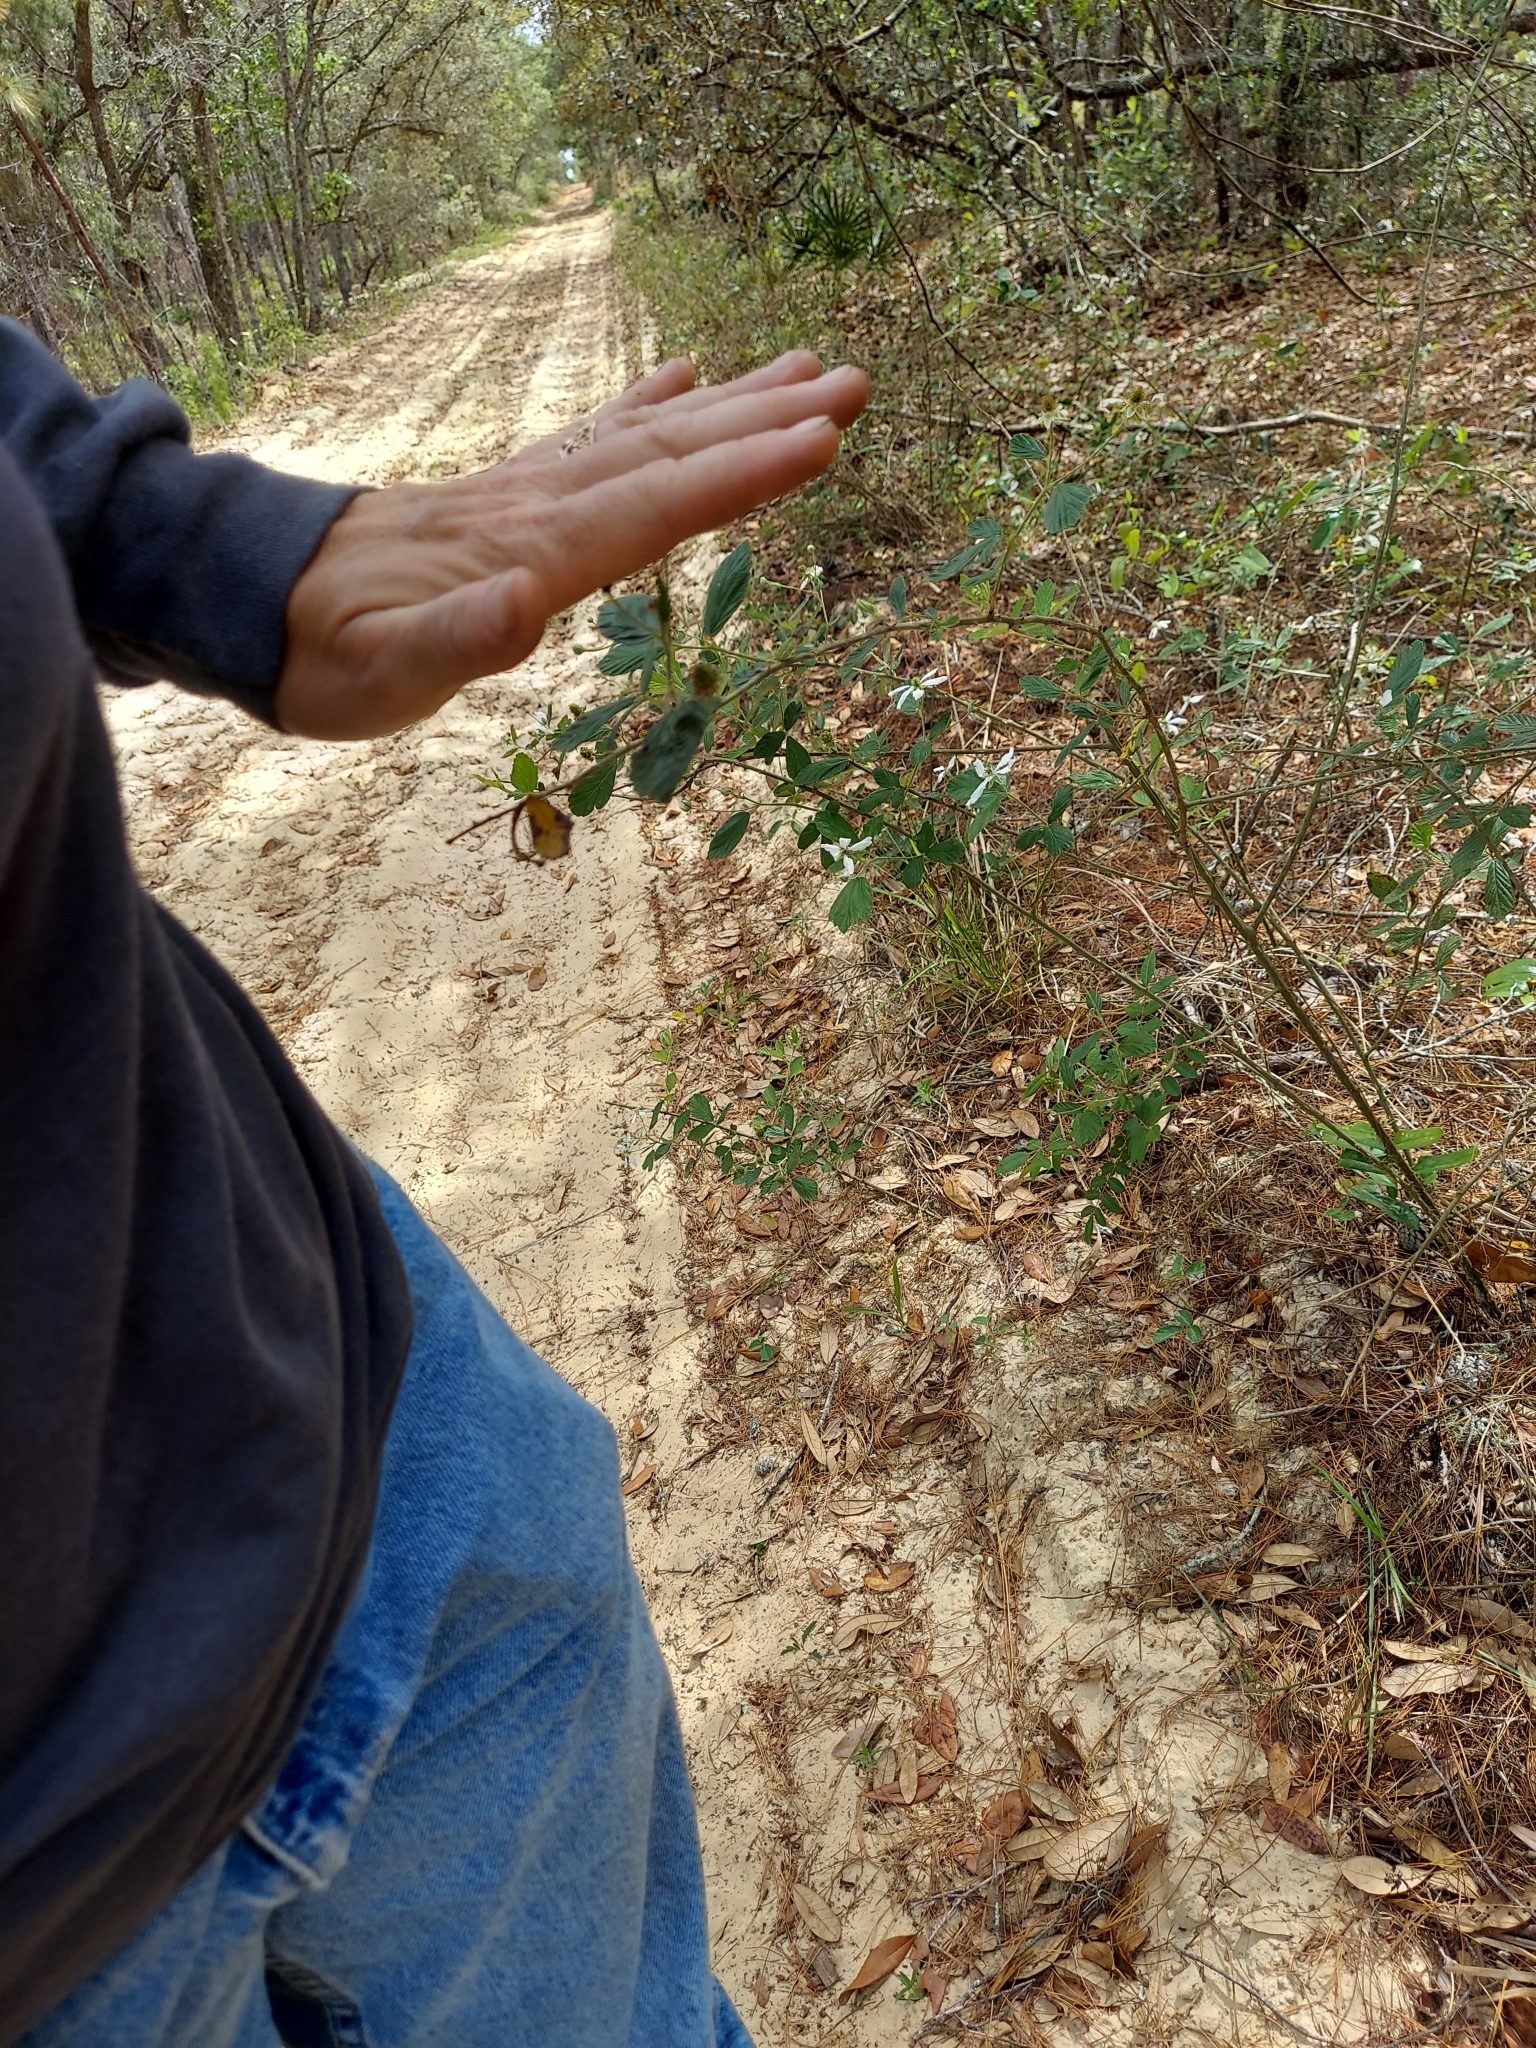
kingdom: Plantae
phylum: Tracheophyta
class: Magnoliopsida
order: Rosales
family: Rosaceae
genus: Rubus
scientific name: Rubus cuneifolius
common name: American bramble
